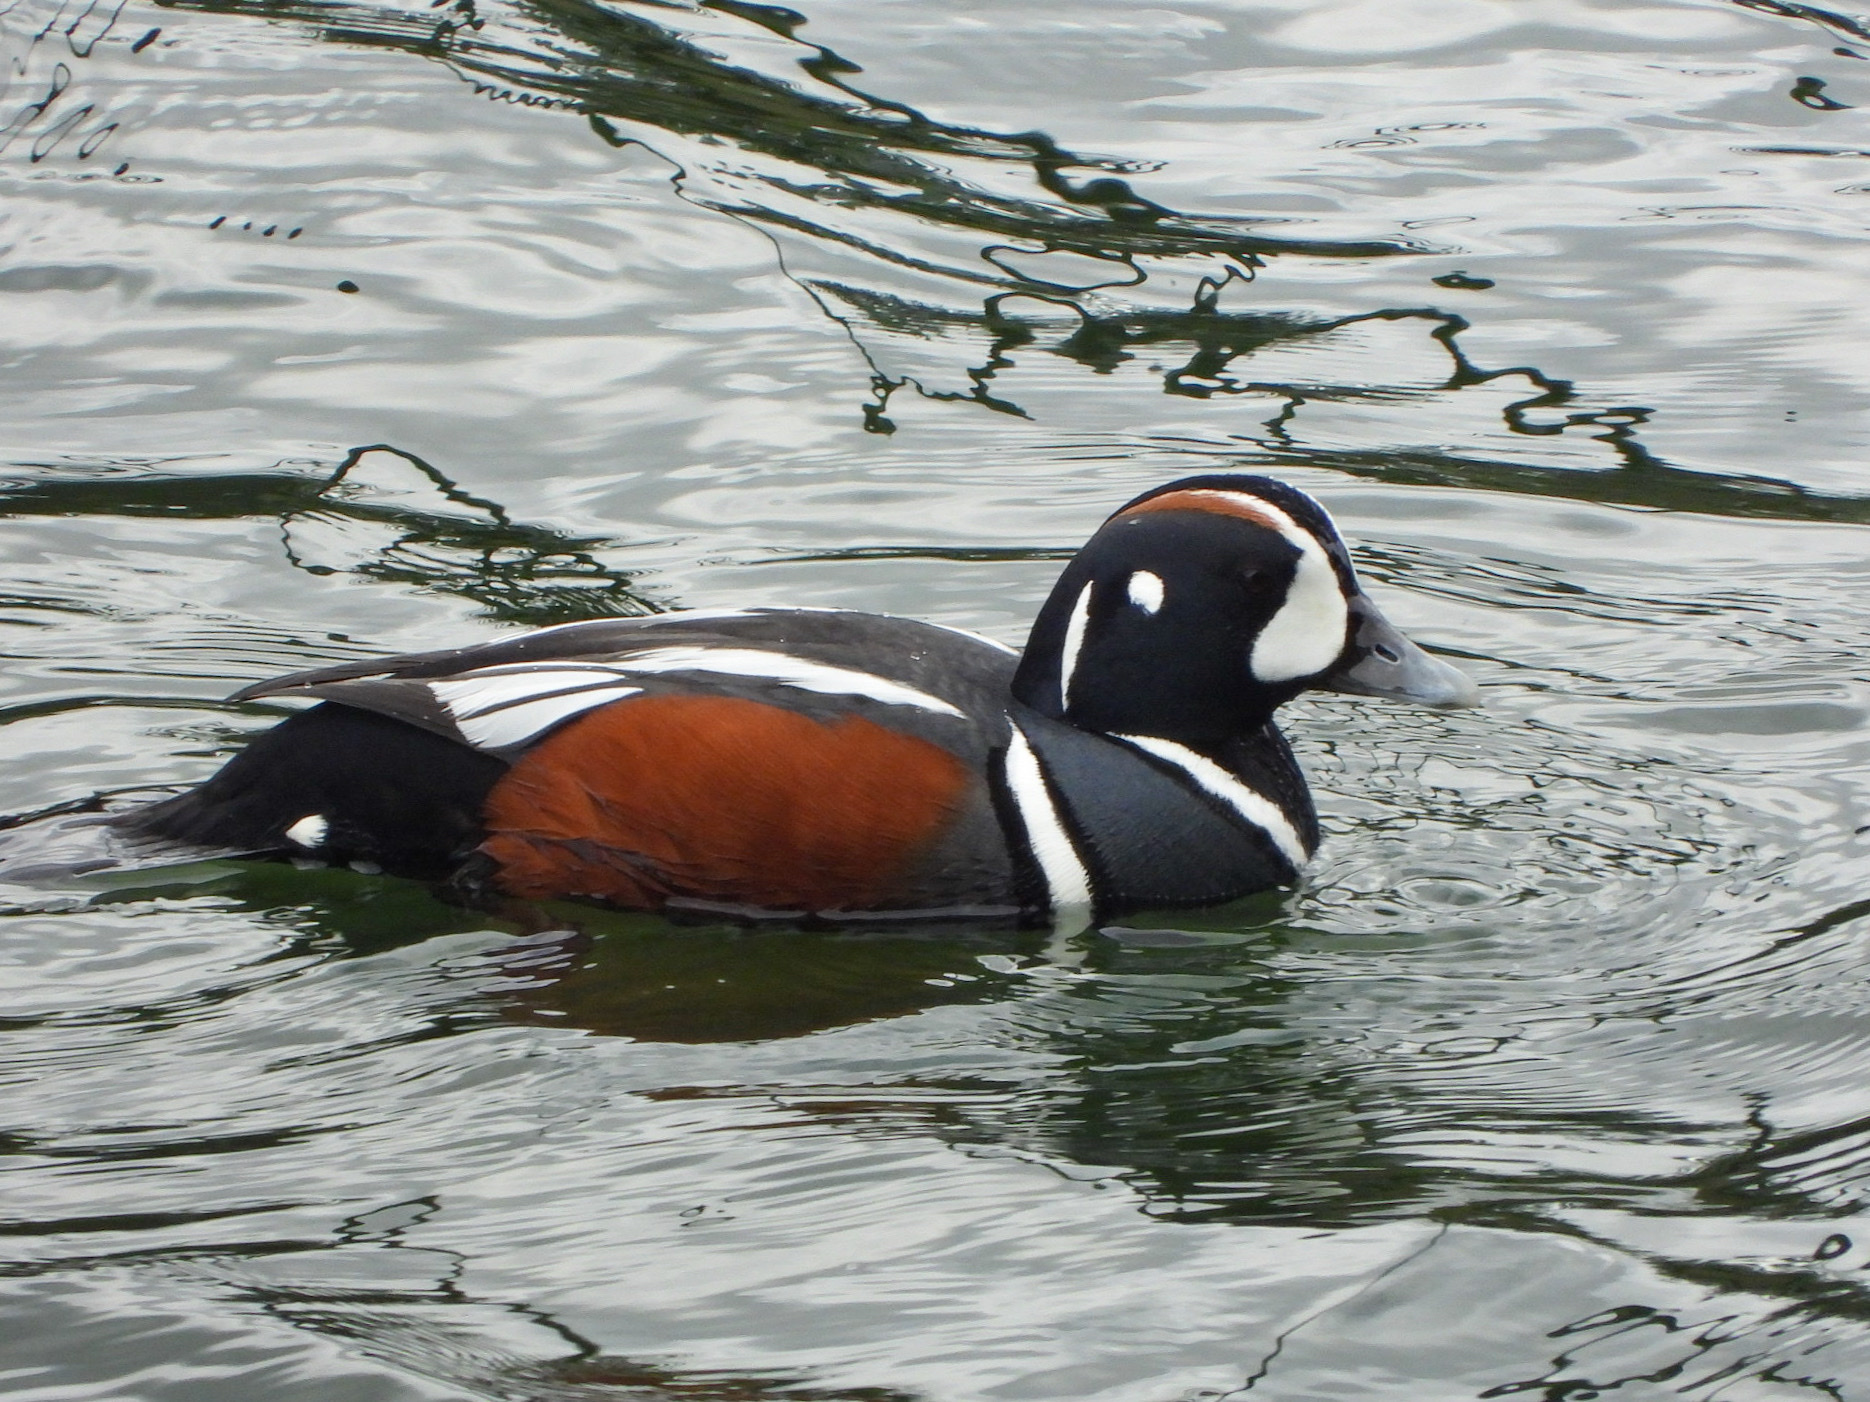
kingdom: Animalia
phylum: Chordata
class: Aves
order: Anseriformes
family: Anatidae
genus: Histrionicus
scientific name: Histrionicus histrionicus
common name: Harlequin duck
